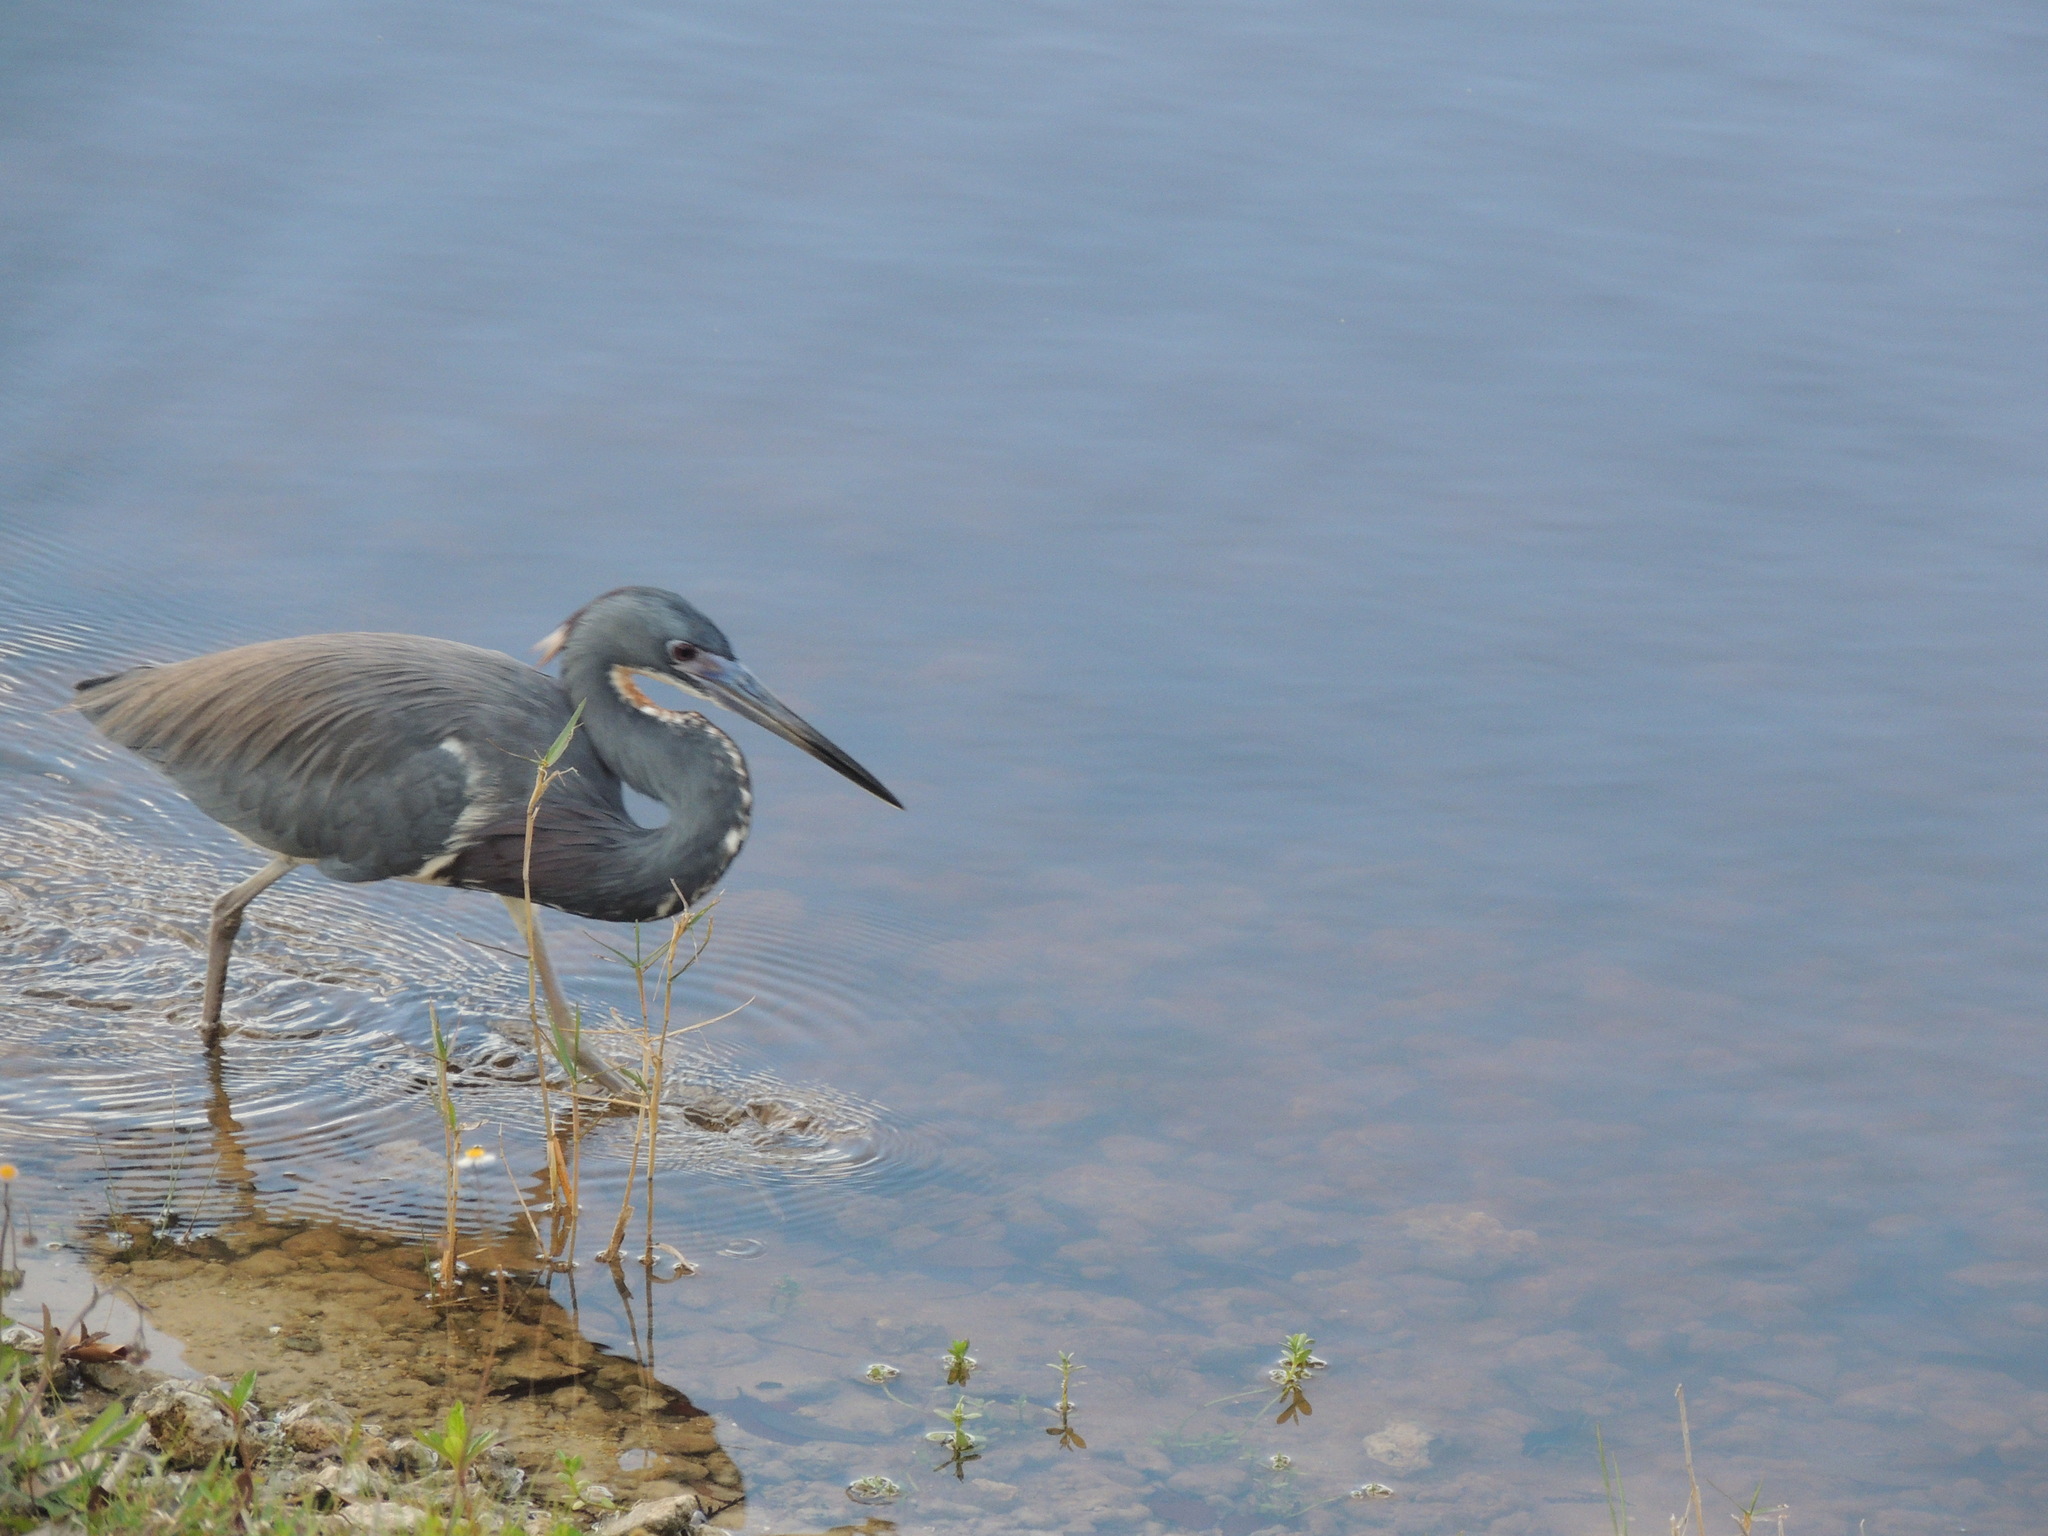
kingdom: Animalia
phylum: Chordata
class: Aves
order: Pelecaniformes
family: Ardeidae
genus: Egretta
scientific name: Egretta tricolor
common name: Tricolored heron
